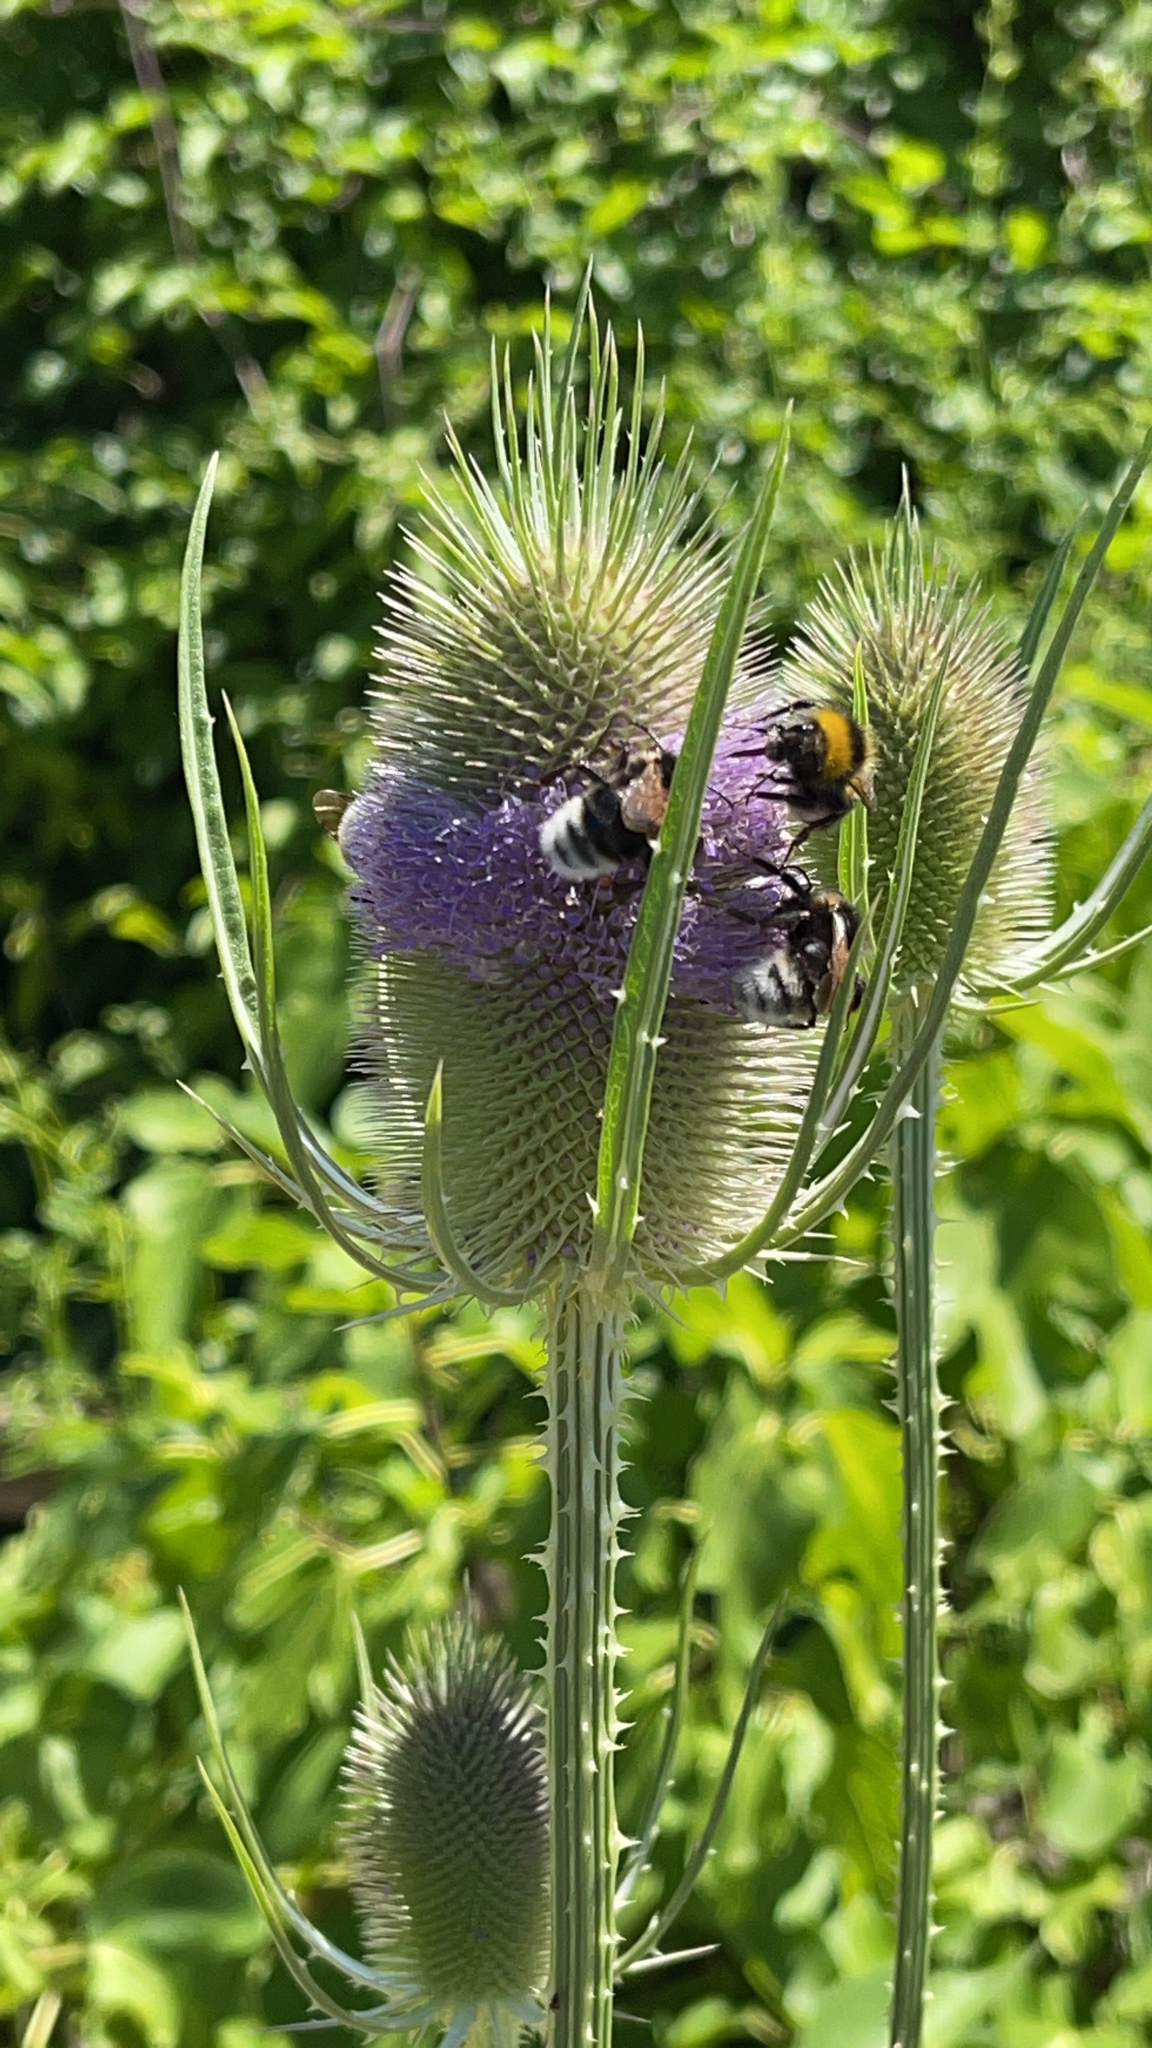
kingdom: Plantae
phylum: Tracheophyta
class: Magnoliopsida
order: Dipsacales
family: Caprifoliaceae
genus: Dipsacus
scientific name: Dipsacus fullonum
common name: Teasel
